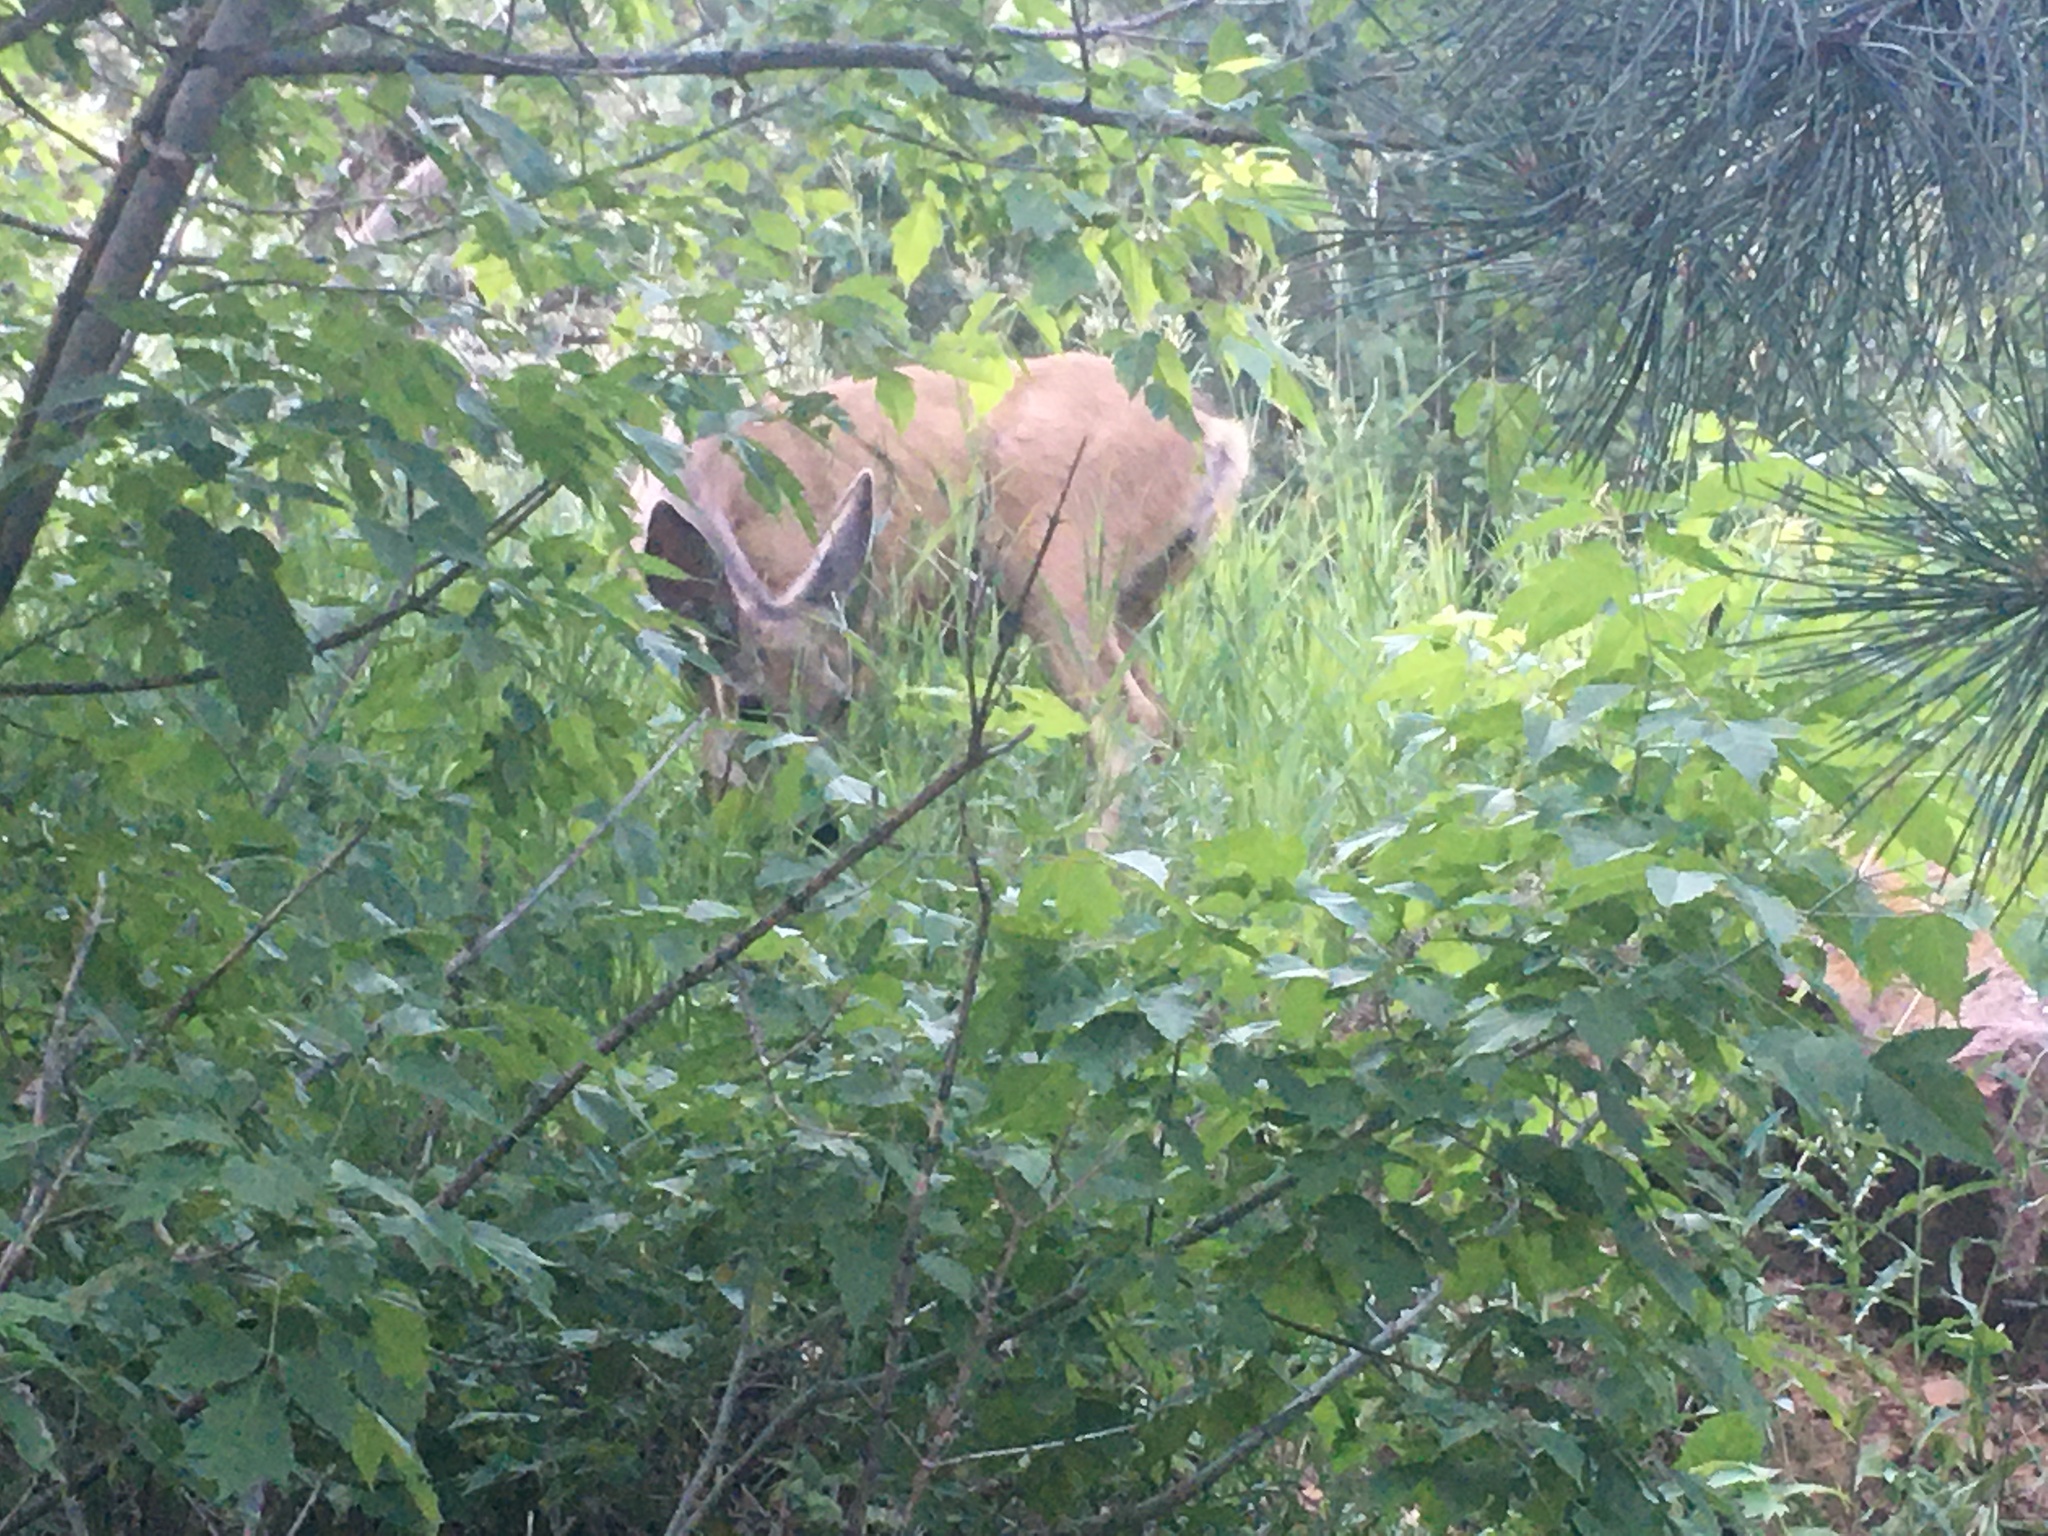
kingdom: Animalia
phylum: Chordata
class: Mammalia
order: Artiodactyla
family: Cervidae
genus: Odocoileus
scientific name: Odocoileus hemionus
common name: Mule deer
